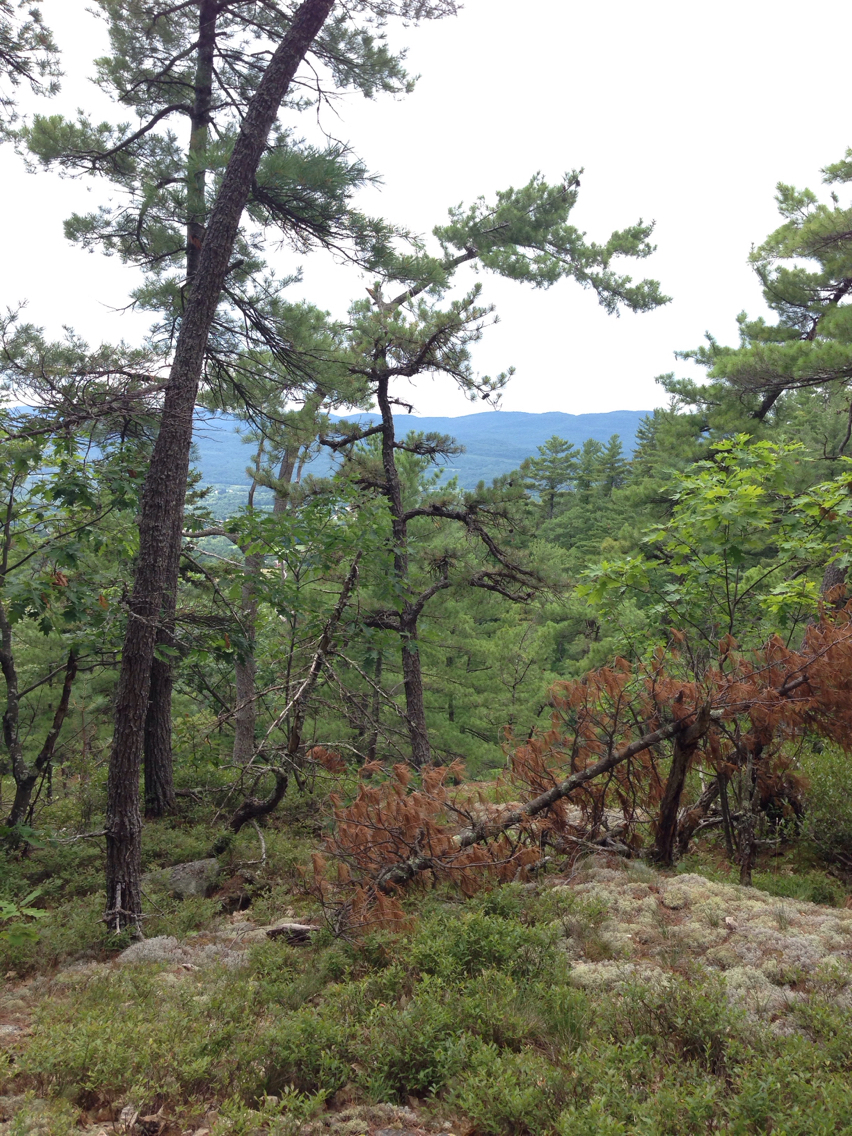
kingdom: Plantae
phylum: Tracheophyta
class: Pinopsida
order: Pinales
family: Pinaceae
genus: Pinus
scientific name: Pinus rigida
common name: Pitch pine
